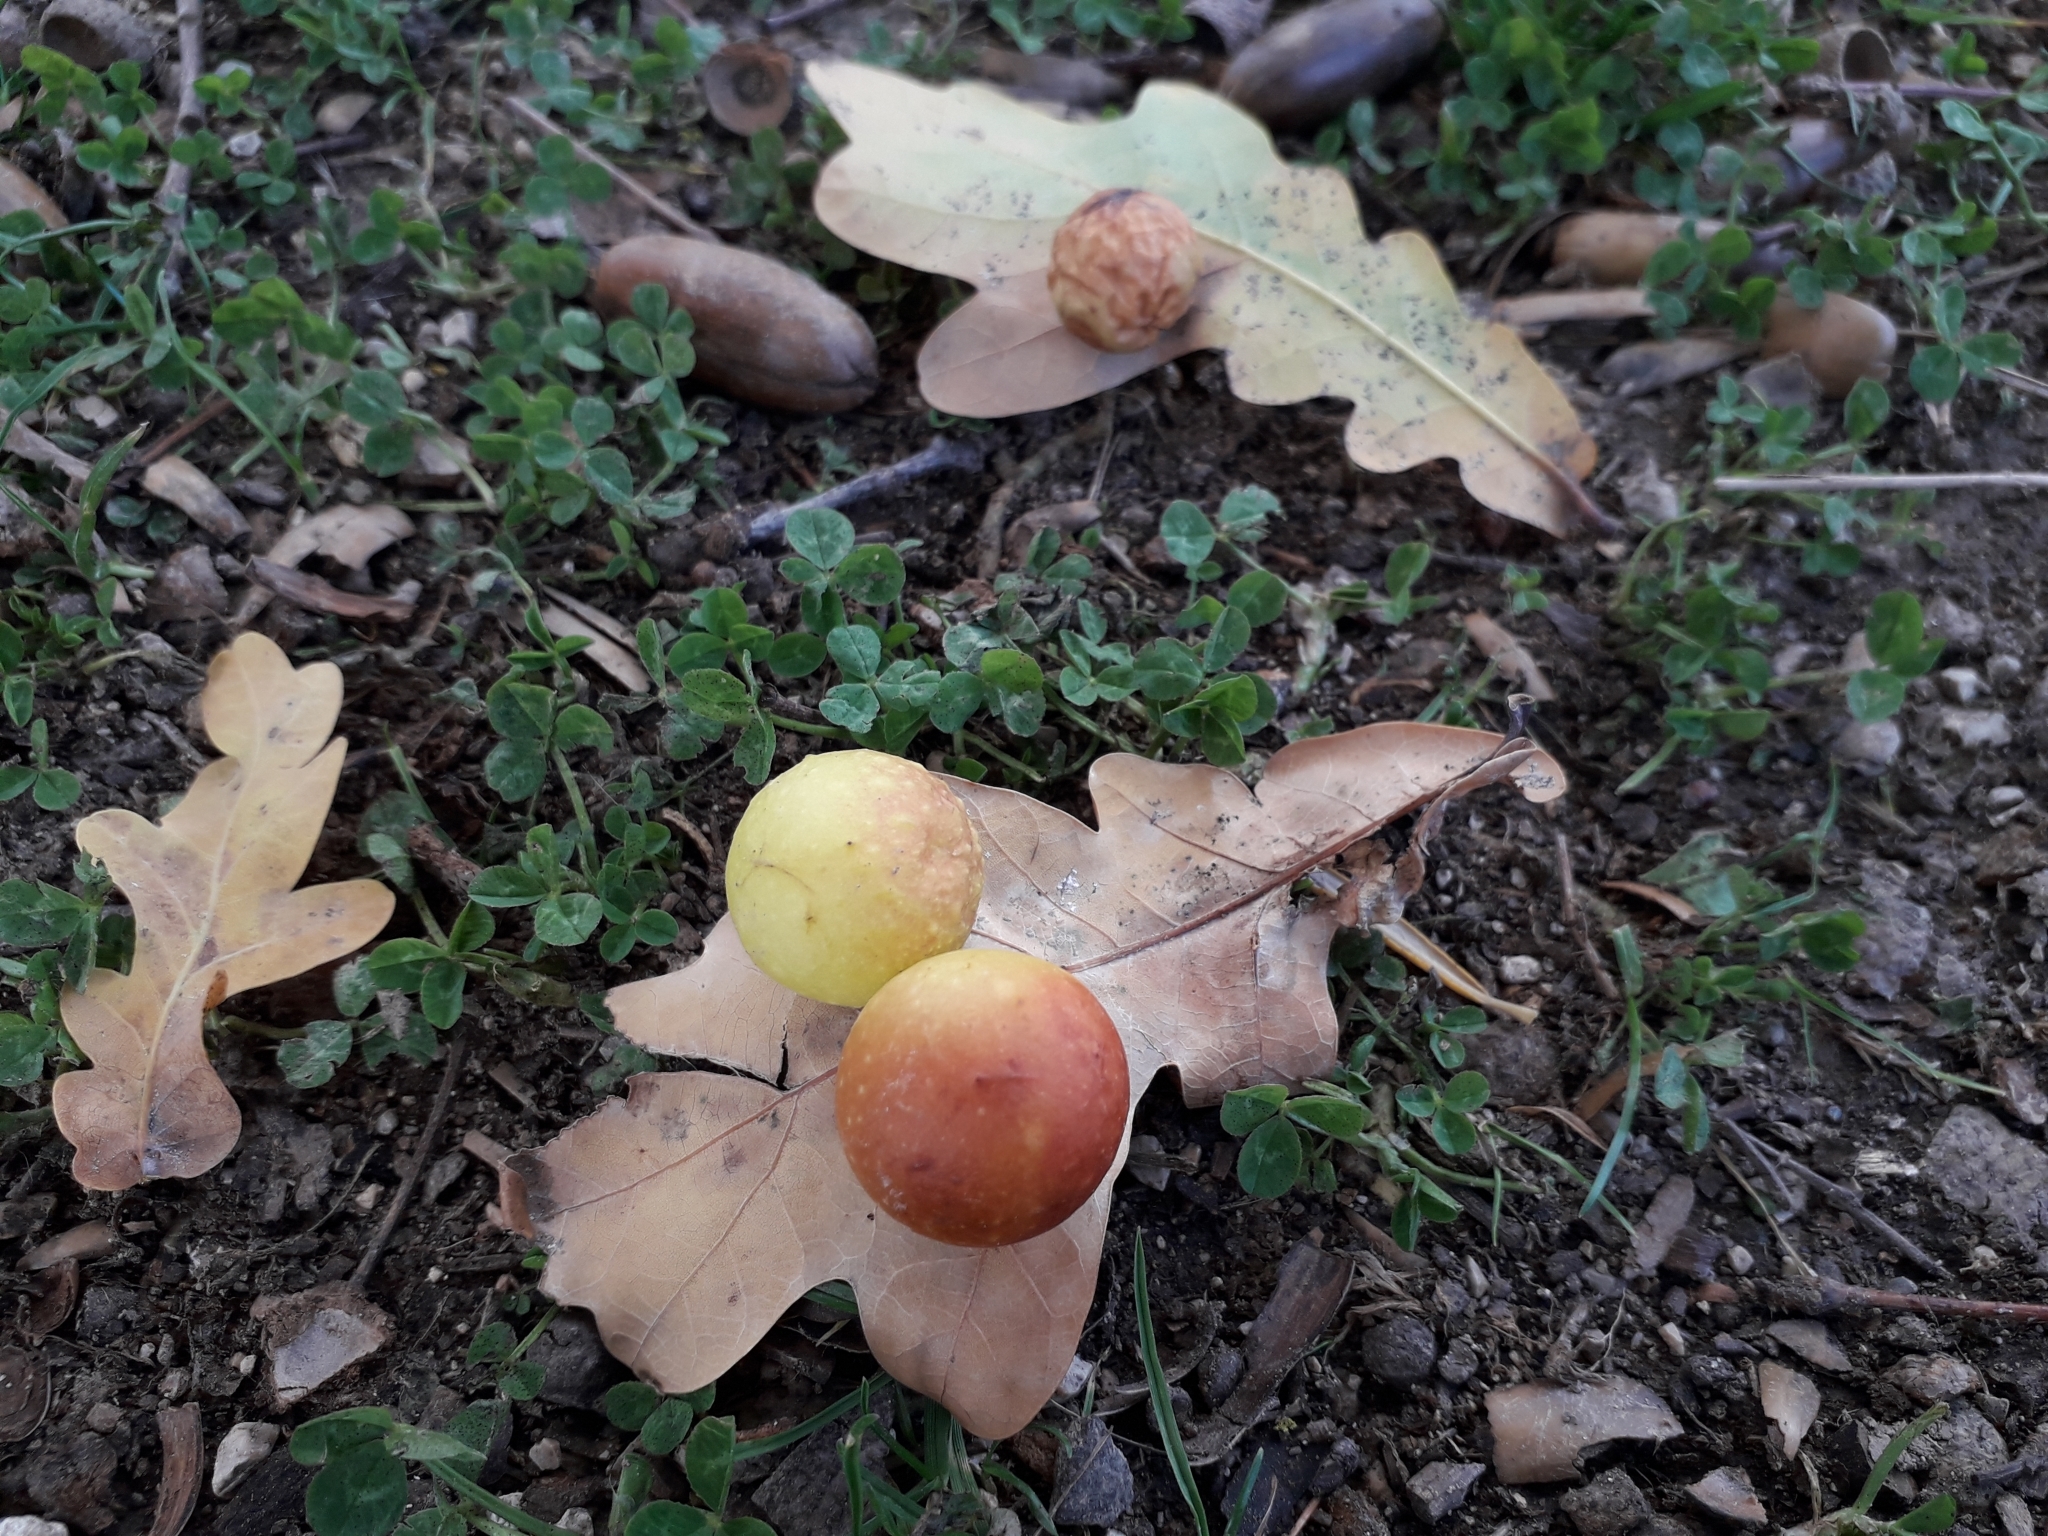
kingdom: Animalia
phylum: Arthropoda
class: Insecta
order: Hymenoptera
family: Cynipidae
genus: Cynips
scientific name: Cynips quercusfolii
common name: Cherry gall
